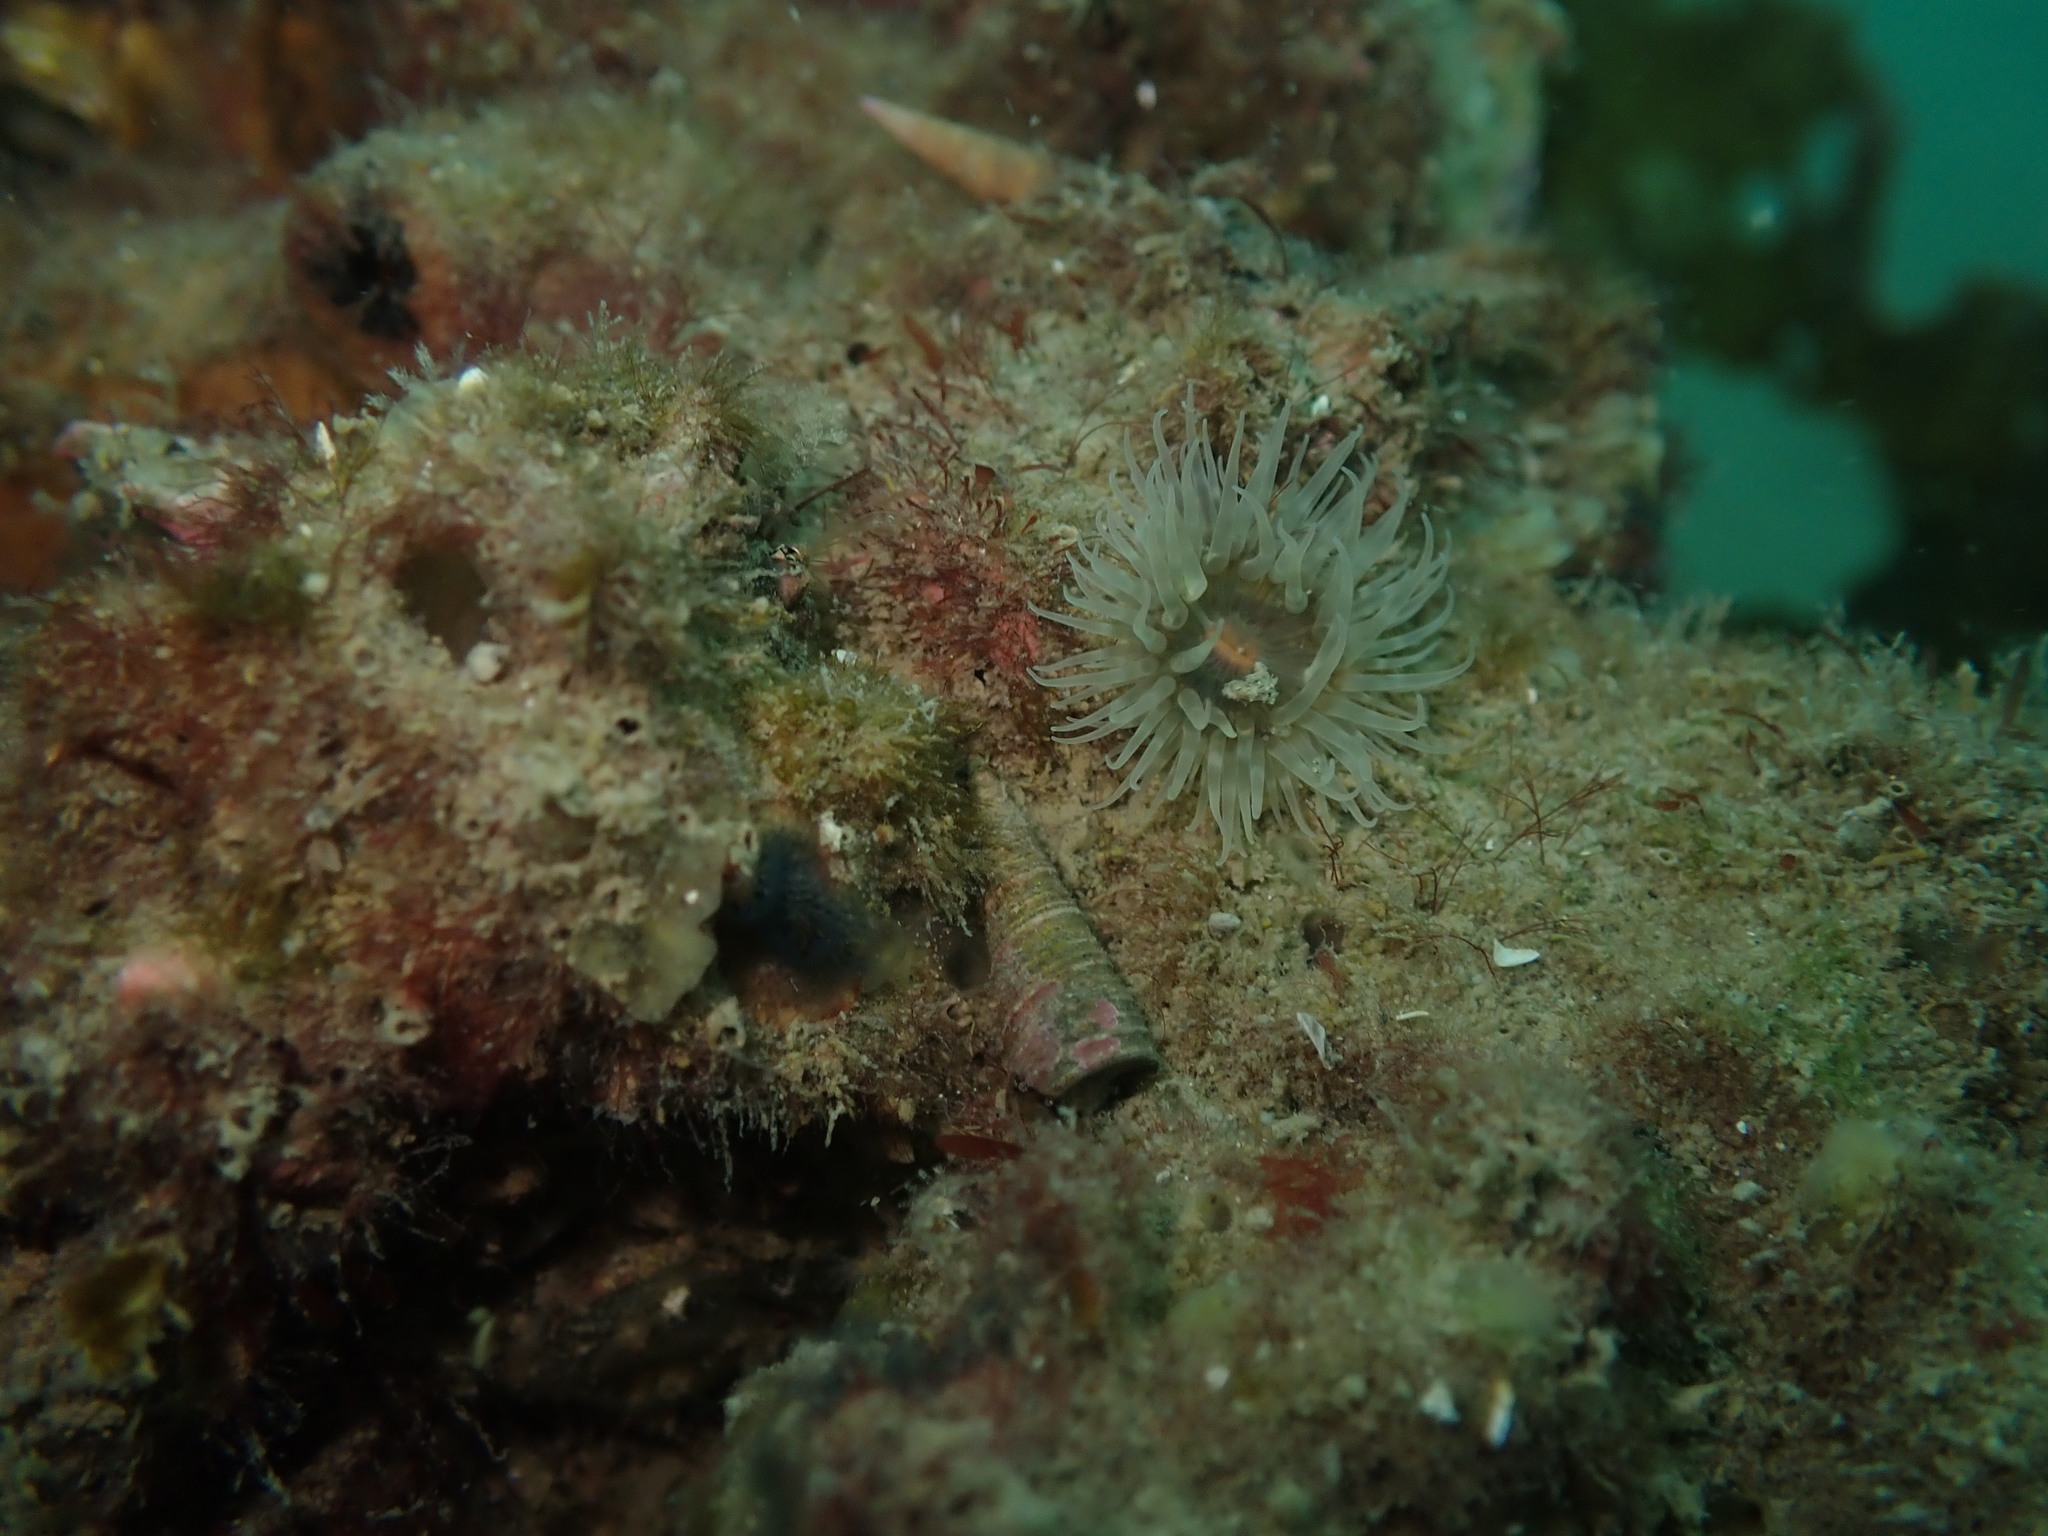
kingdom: Animalia
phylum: Mollusca
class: Gastropoda
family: Turritellidae
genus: Maoricolpus
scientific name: Maoricolpus roseus
